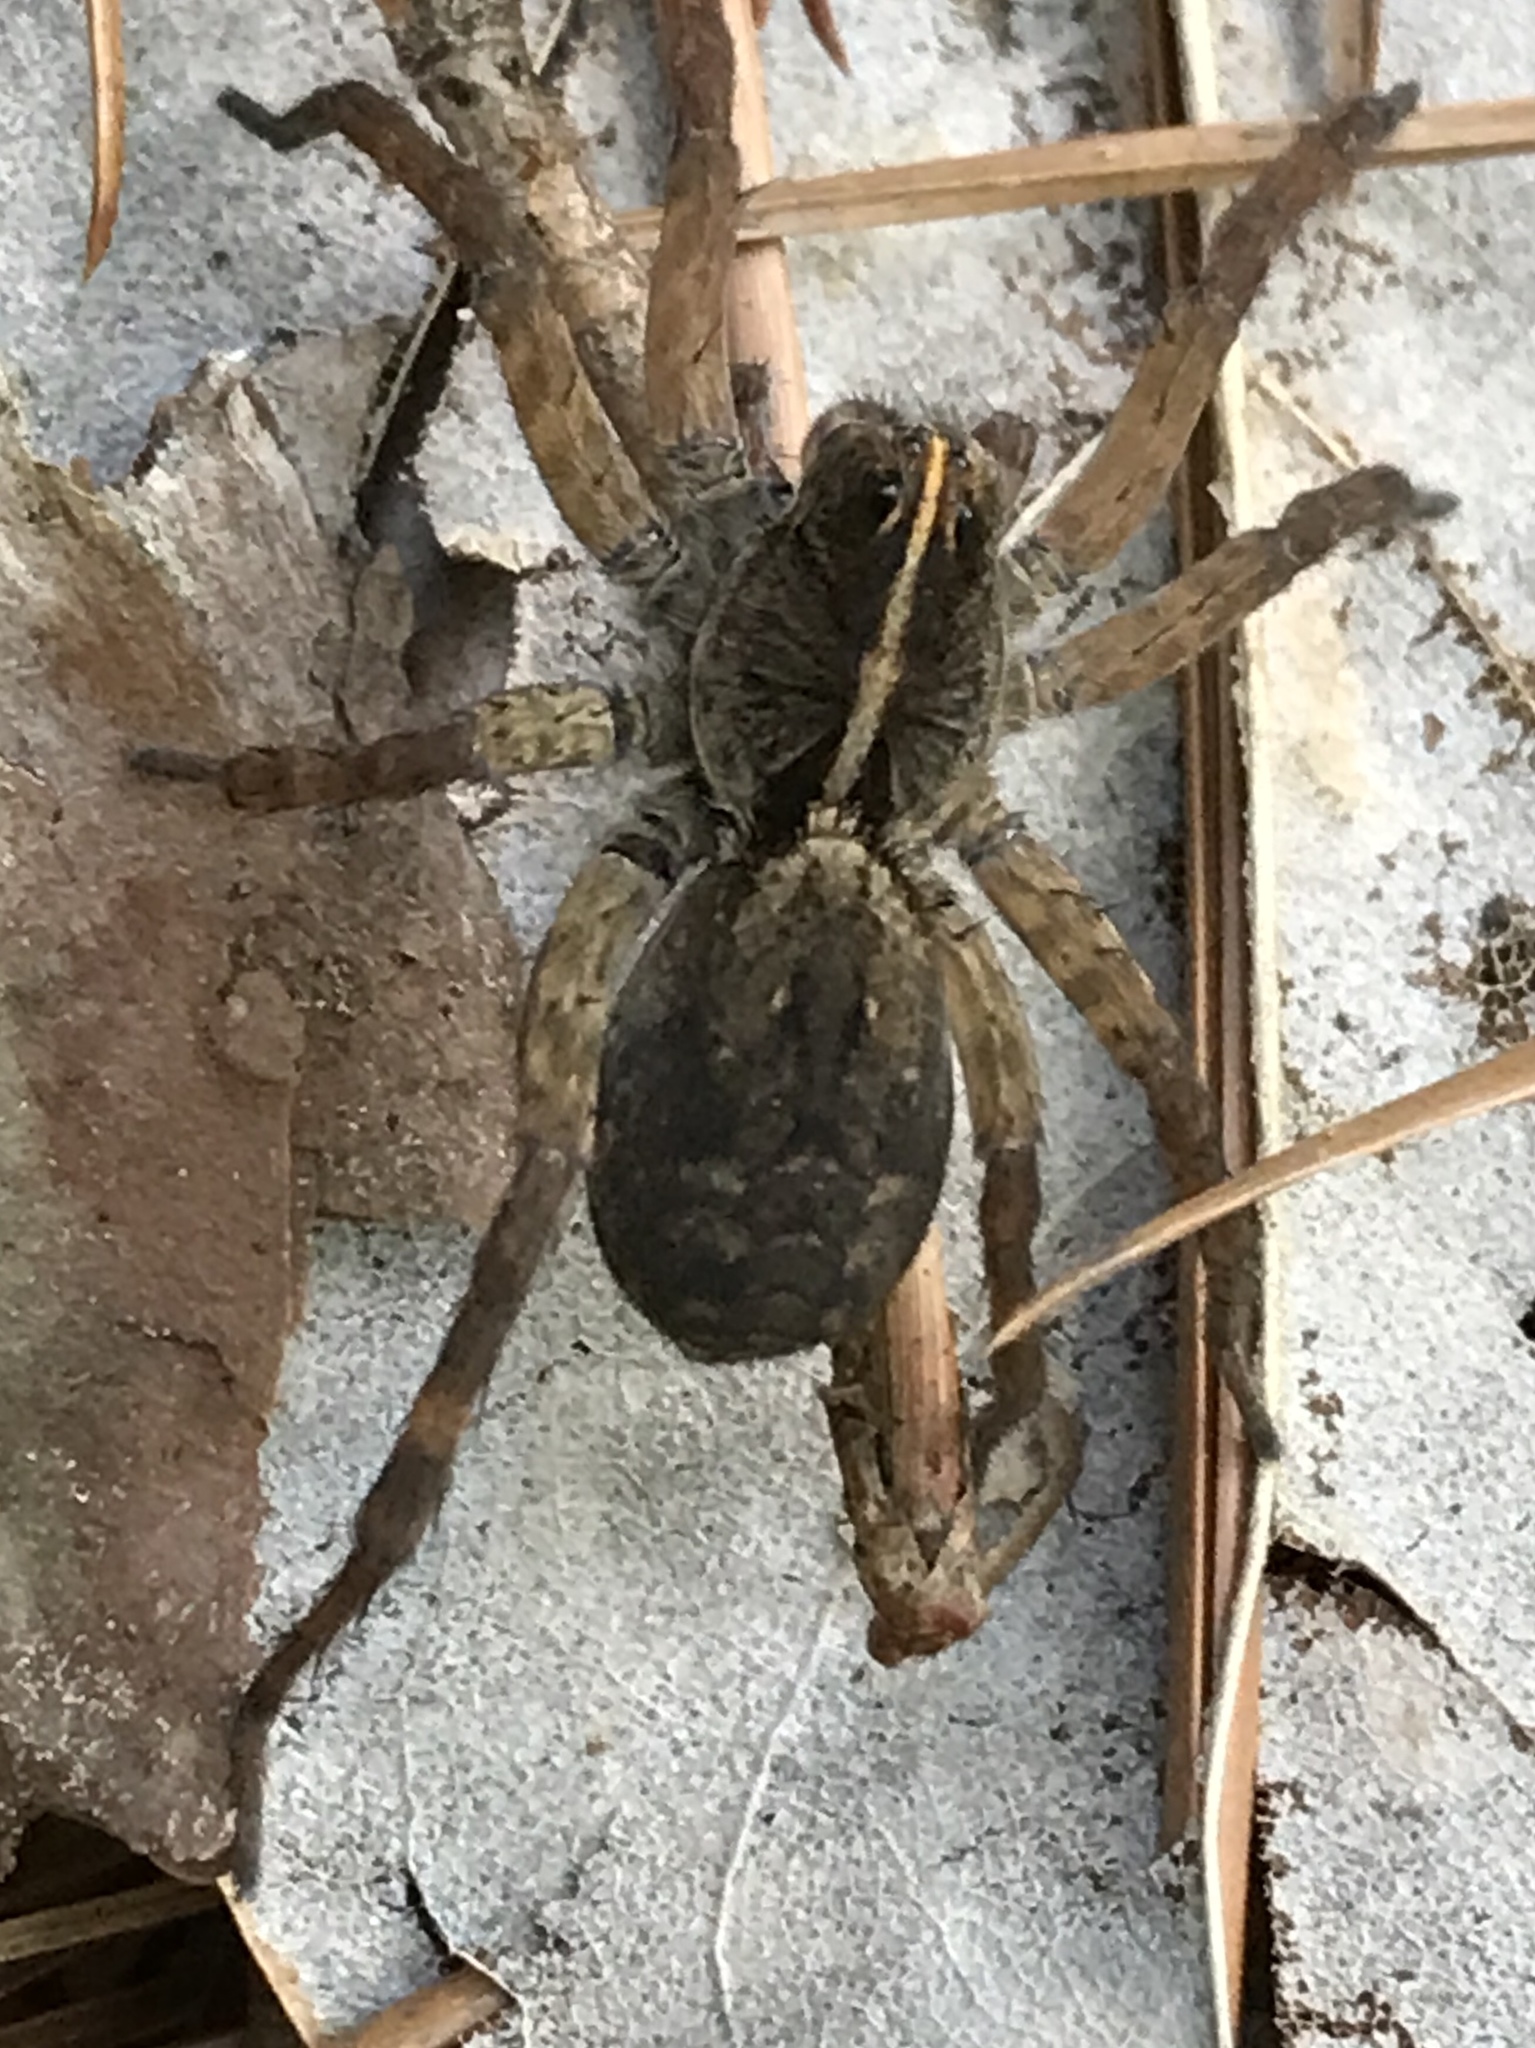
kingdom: Animalia
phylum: Arthropoda
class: Arachnida
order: Araneae
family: Lycosidae
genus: Tigrosa
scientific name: Tigrosa georgicola
